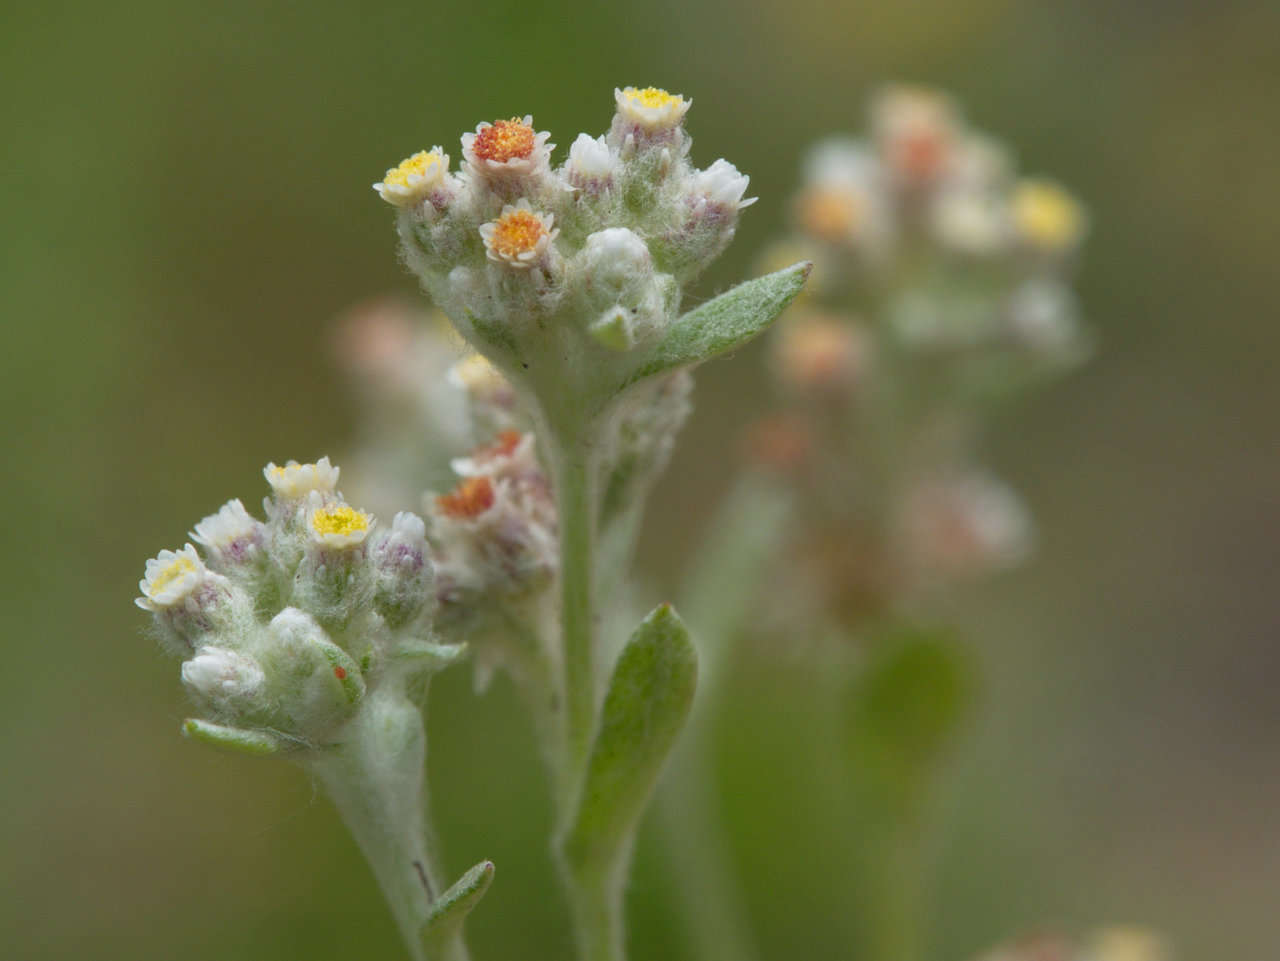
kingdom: Plantae
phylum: Tracheophyta
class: Magnoliopsida
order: Asterales
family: Asteraceae
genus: Vellereophyton
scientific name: Vellereophyton dealbatum
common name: White-cudweed
